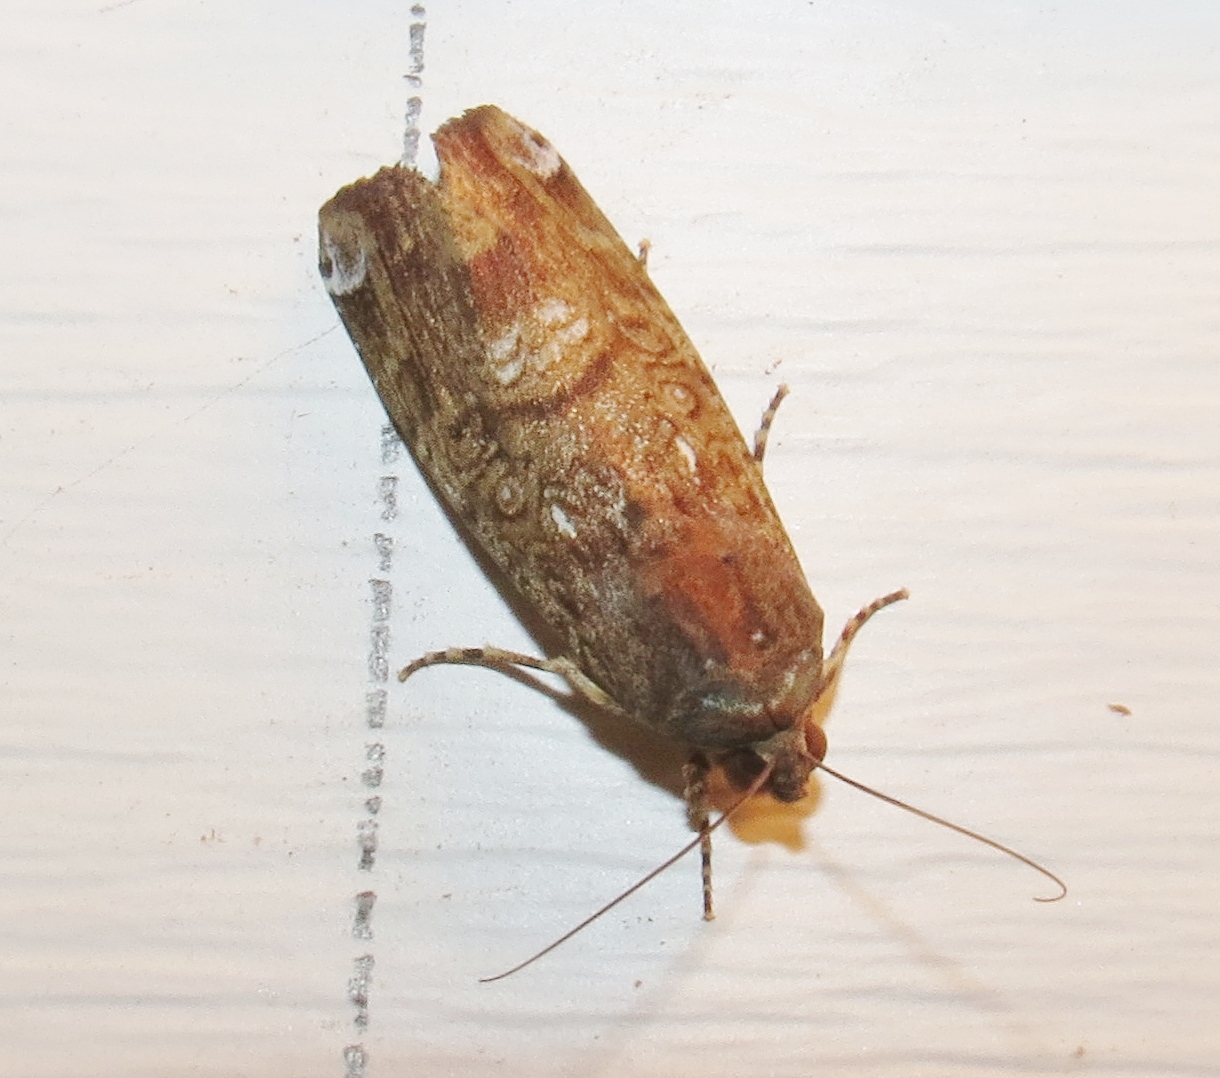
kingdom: Animalia
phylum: Arthropoda
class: Insecta
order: Lepidoptera
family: Noctuidae
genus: Magusa
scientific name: Magusa divaricata
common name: Orb narrow-winged moth
